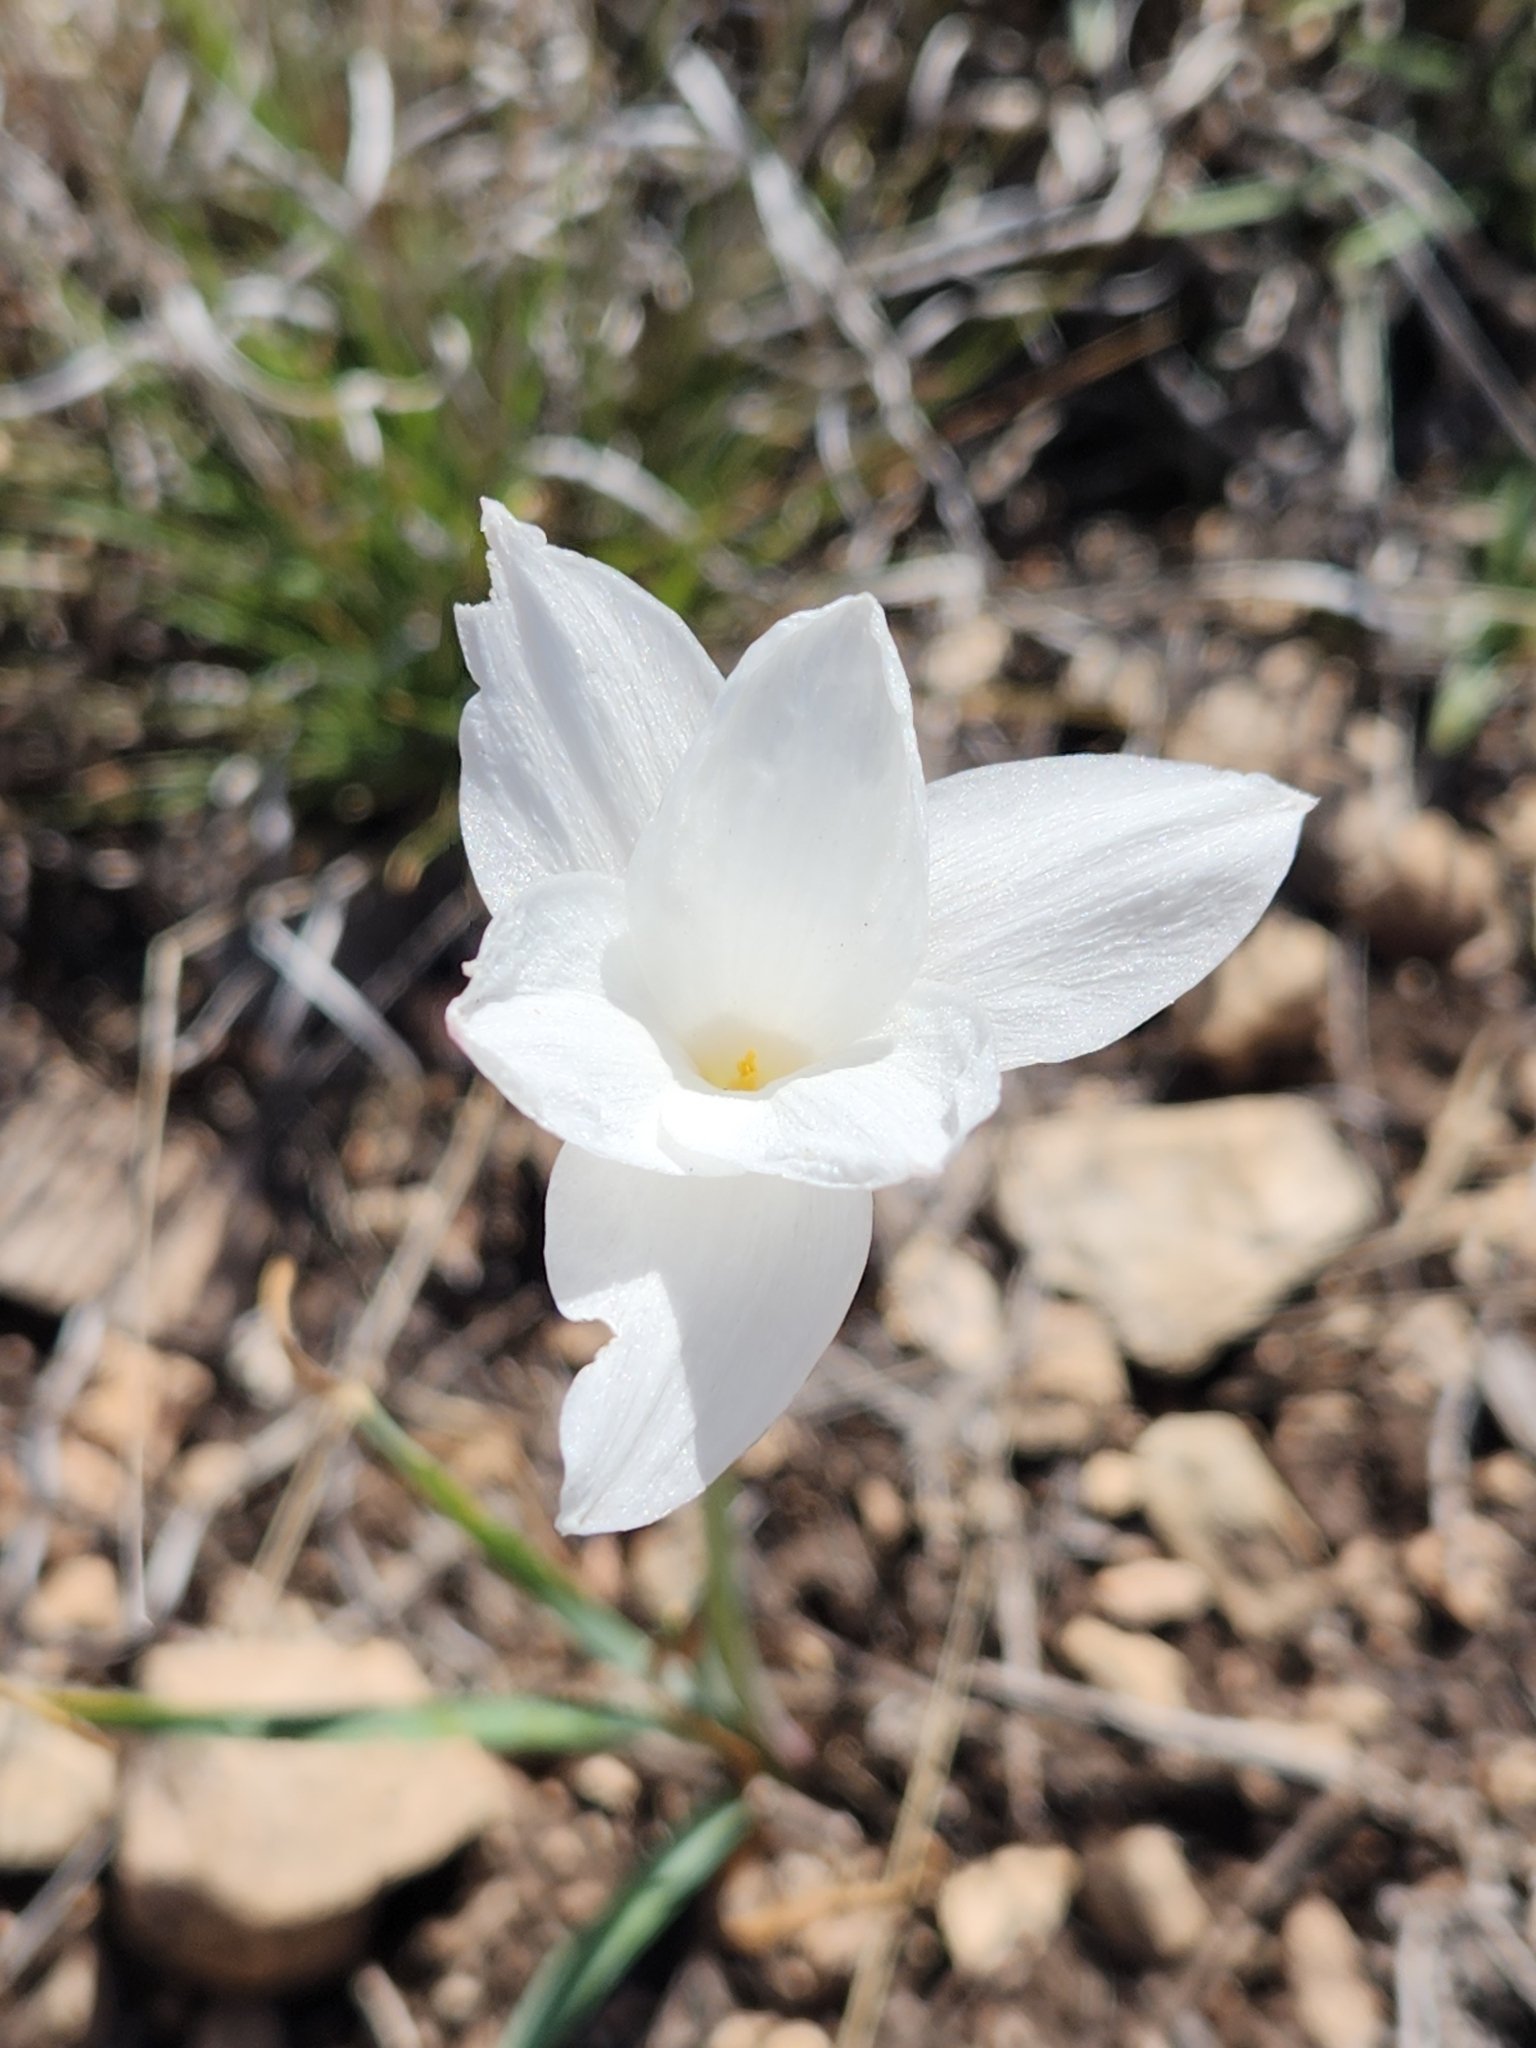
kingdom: Plantae
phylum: Tracheophyta
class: Liliopsida
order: Asparagales
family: Amaryllidaceae
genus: Zephyranthes
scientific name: Zephyranthes drummondii
